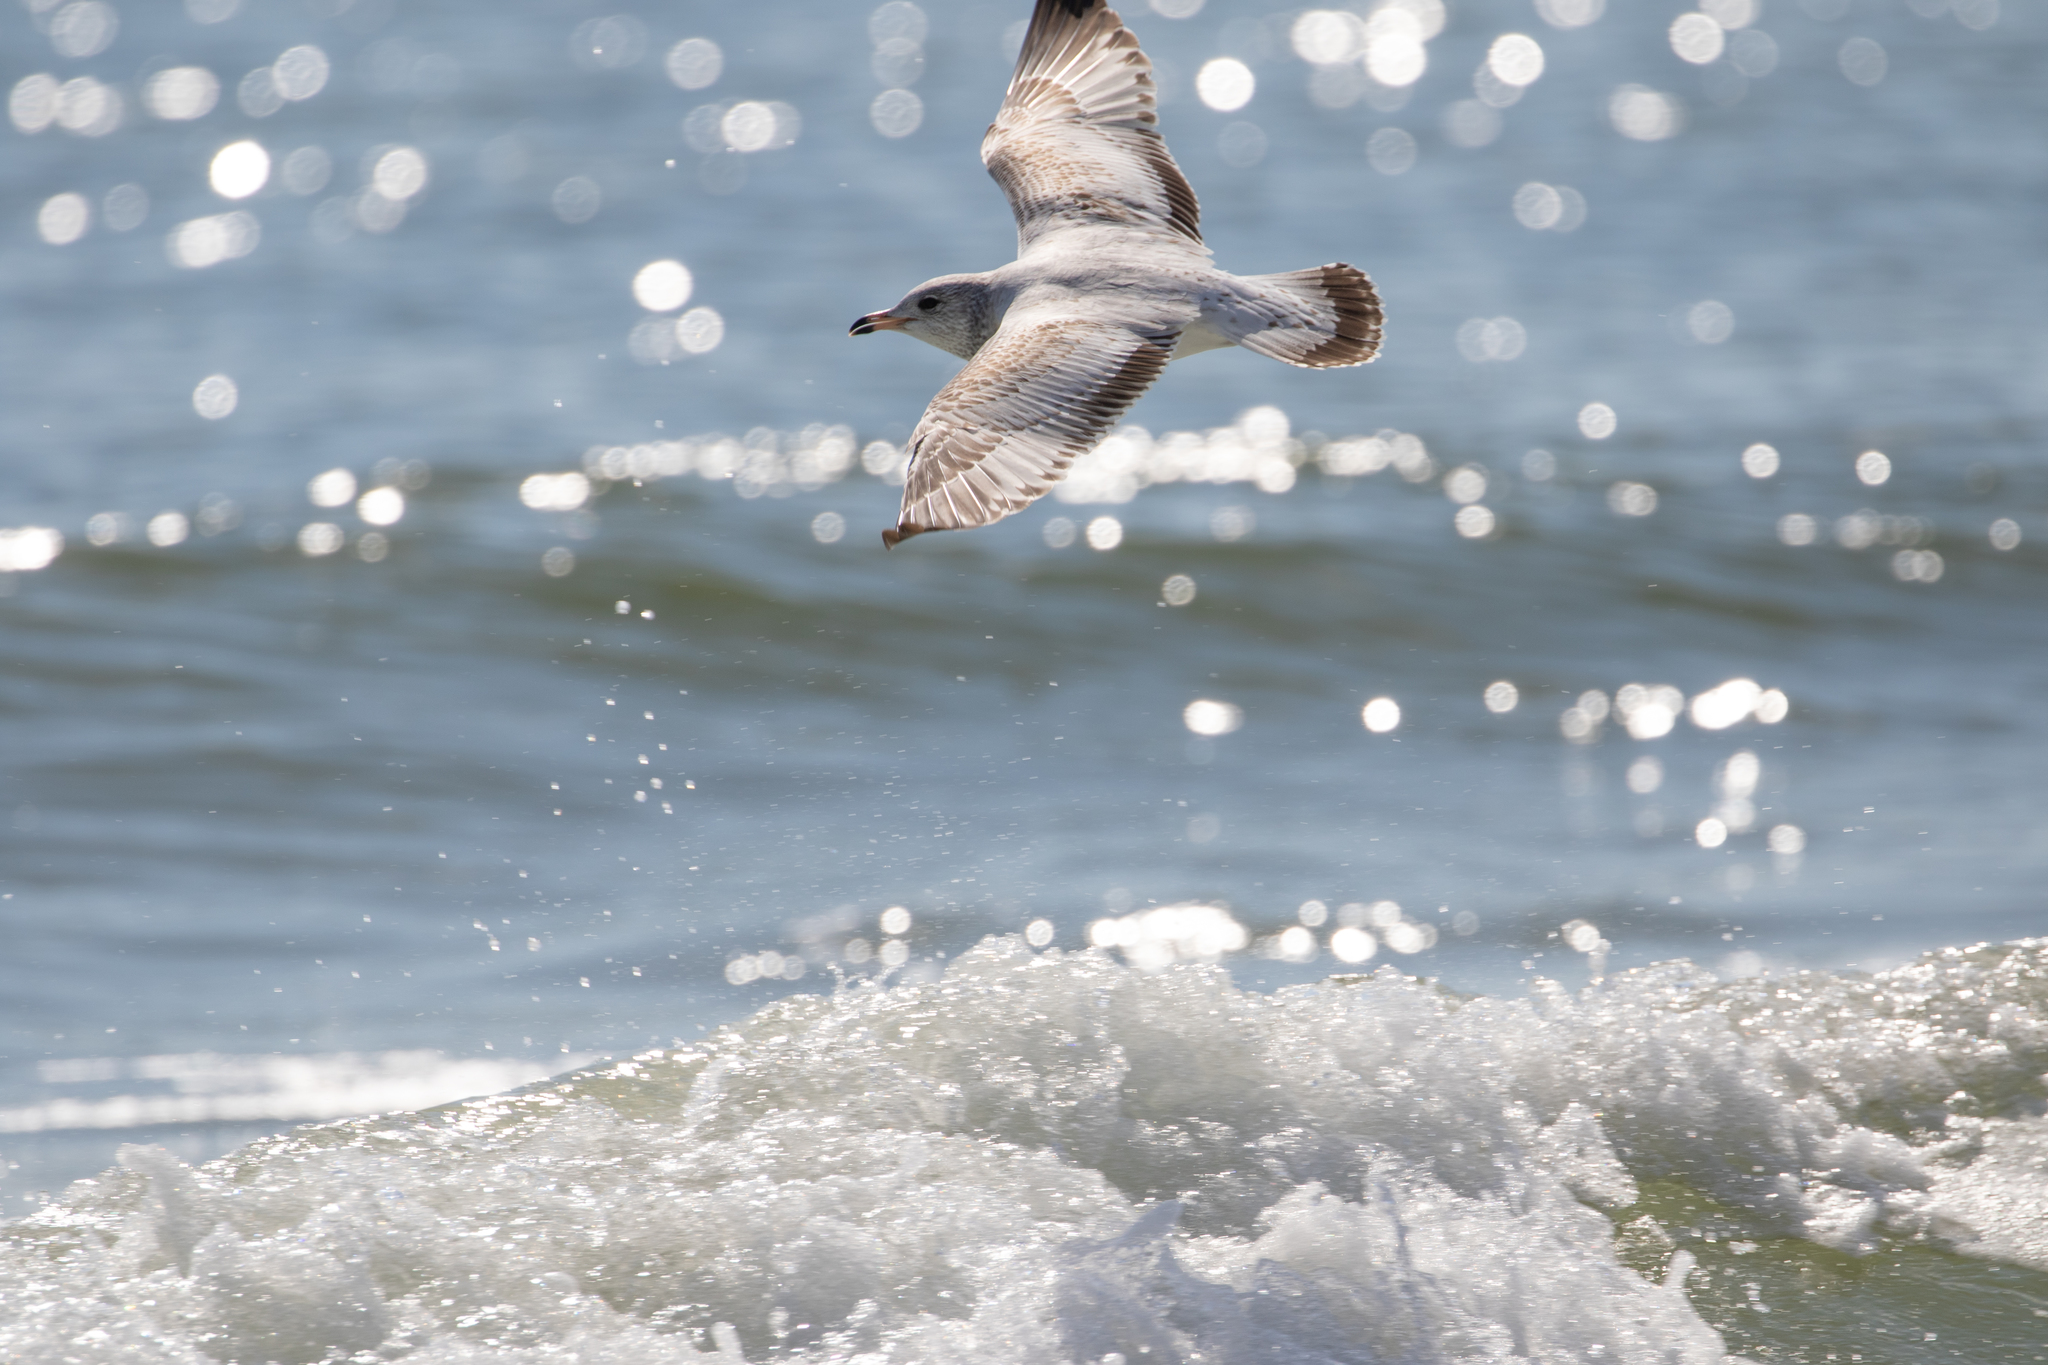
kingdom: Animalia
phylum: Chordata
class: Aves
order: Charadriiformes
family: Laridae
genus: Larus
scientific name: Larus delawarensis
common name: Ring-billed gull
